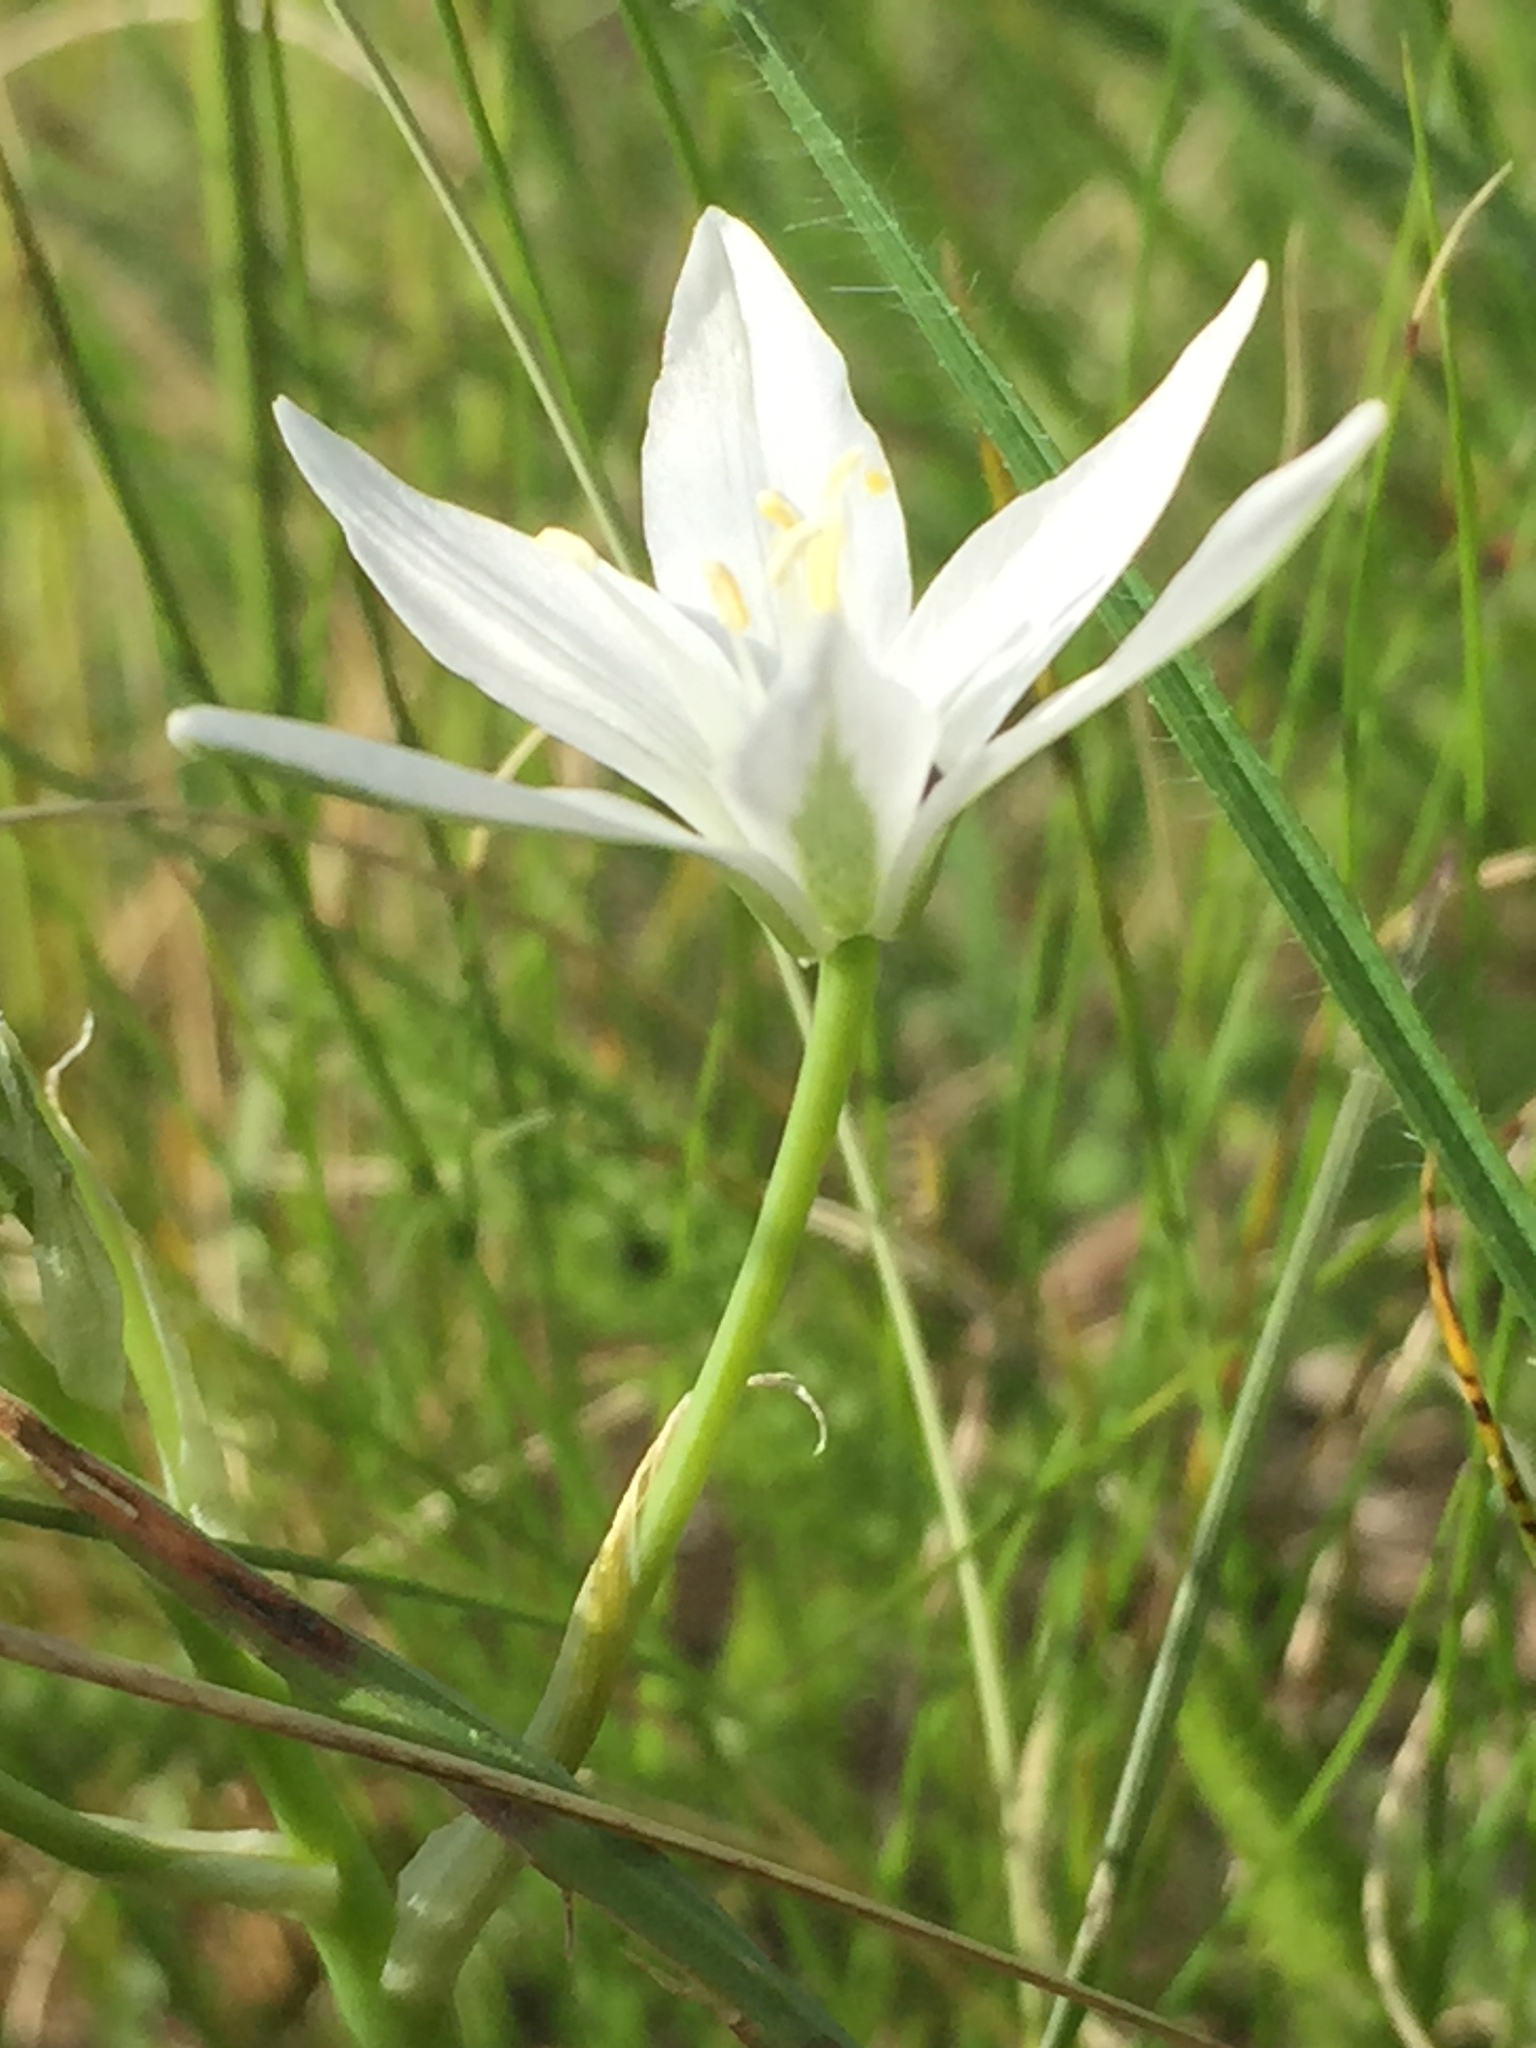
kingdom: Plantae
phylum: Tracheophyta
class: Liliopsida
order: Asparagales
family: Asparagaceae
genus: Ornithogalum
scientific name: Ornithogalum orthophyllum
